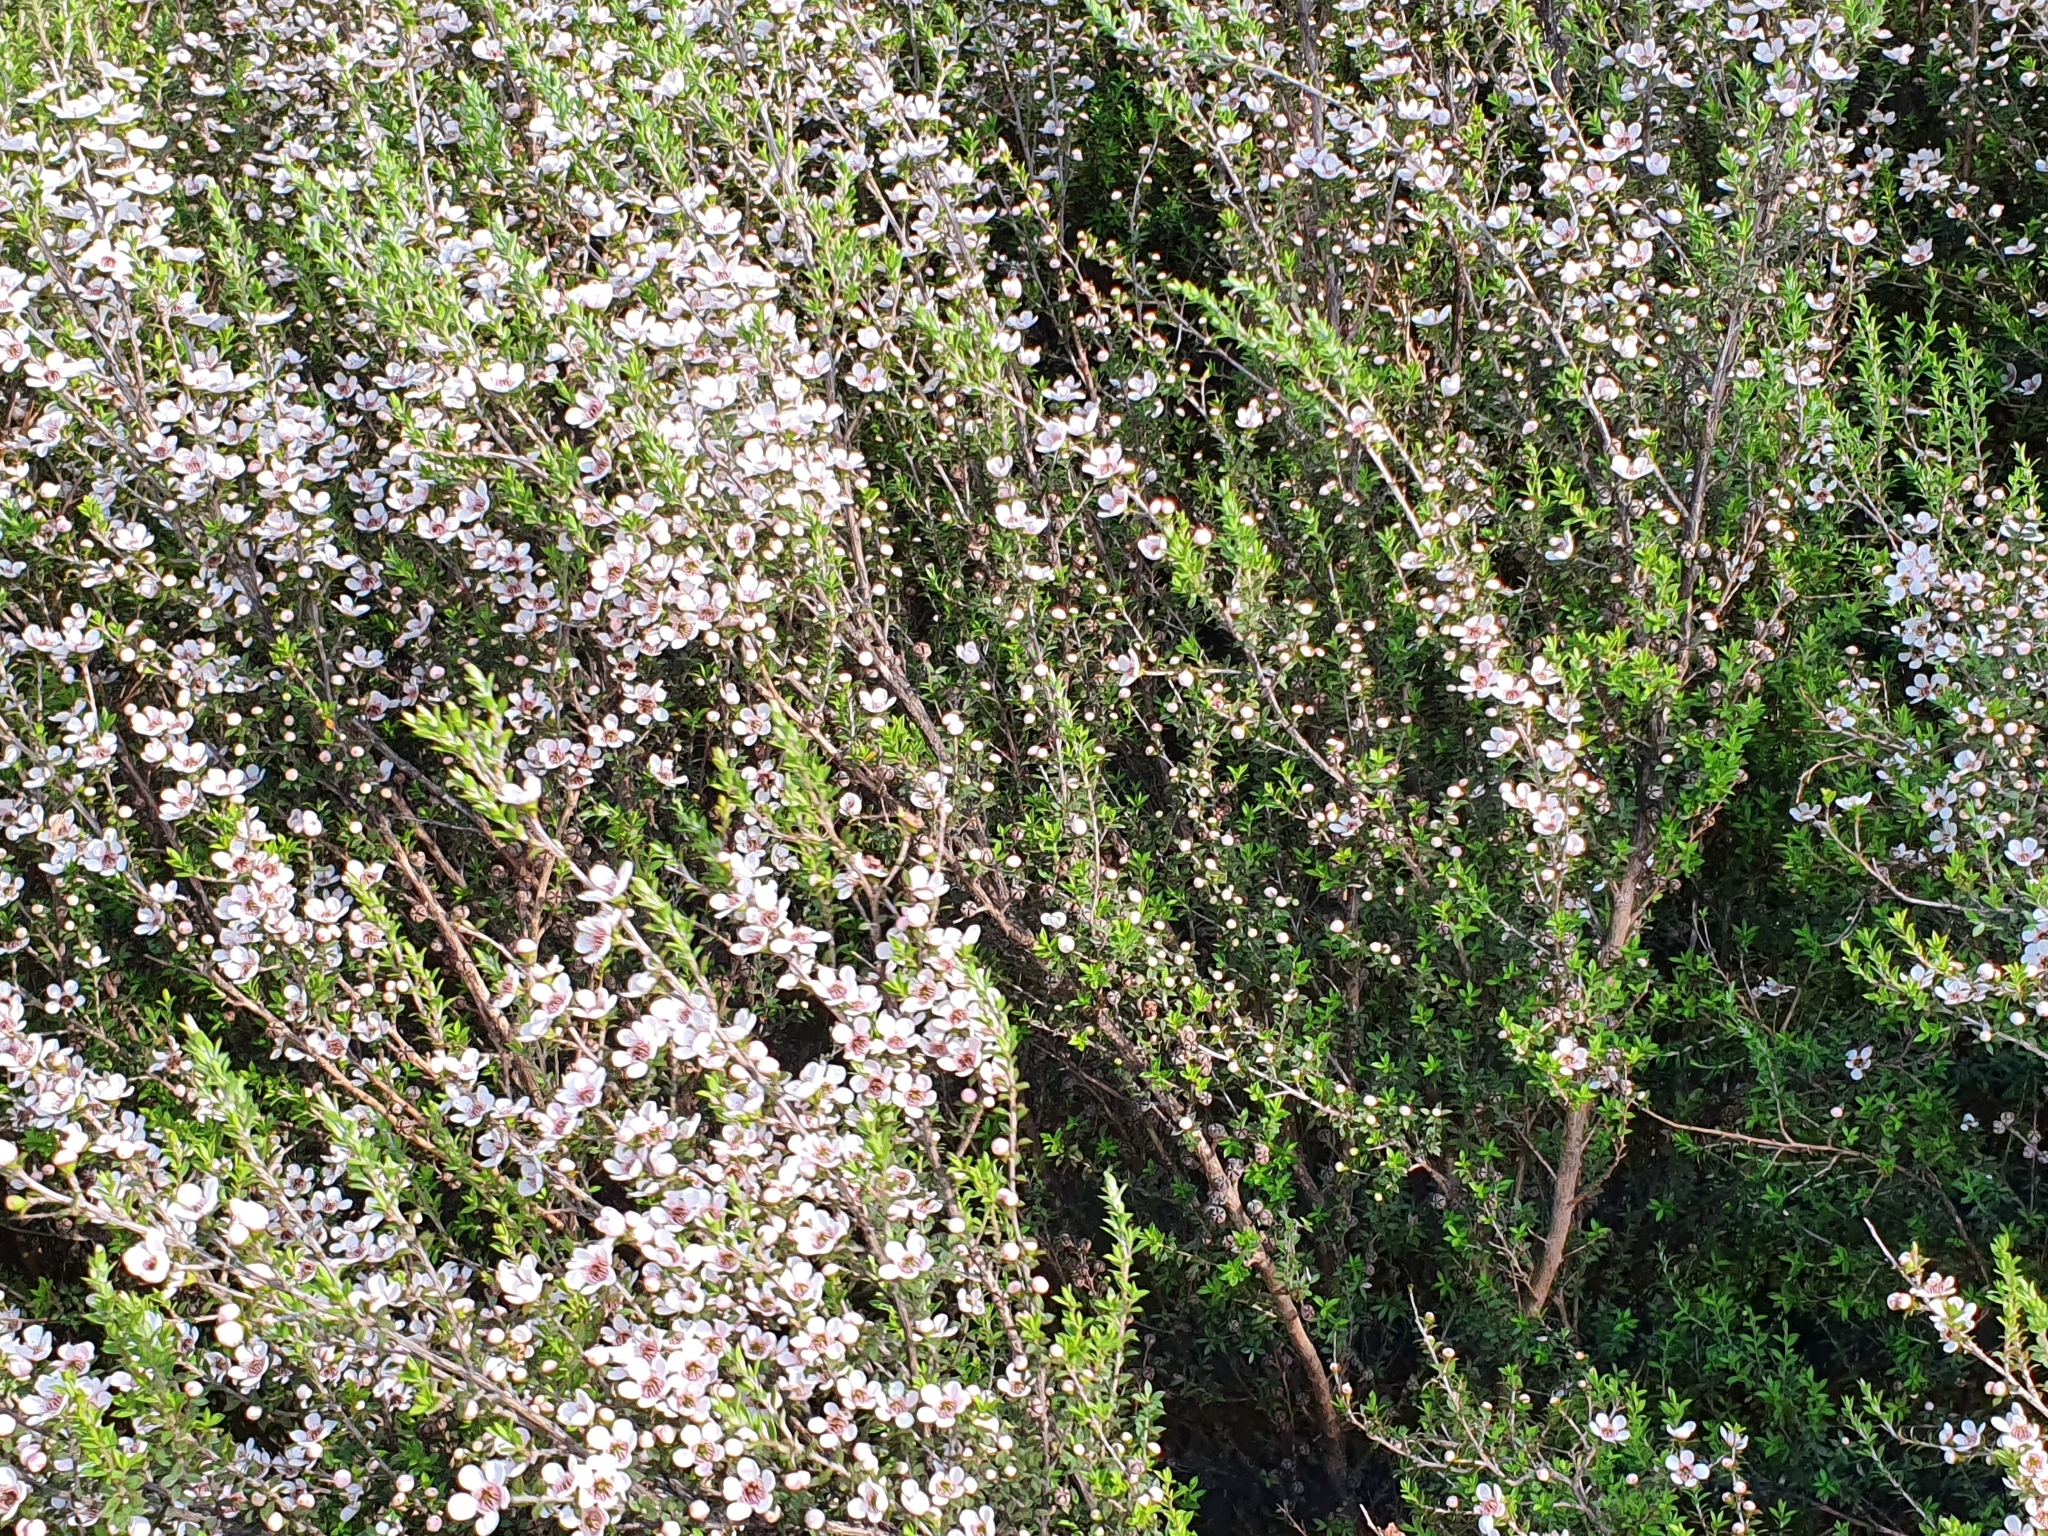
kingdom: Plantae
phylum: Tracheophyta
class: Magnoliopsida
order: Myrtales
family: Myrtaceae
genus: Leptospermum
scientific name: Leptospermum scoparium
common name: Broom tea-tree
